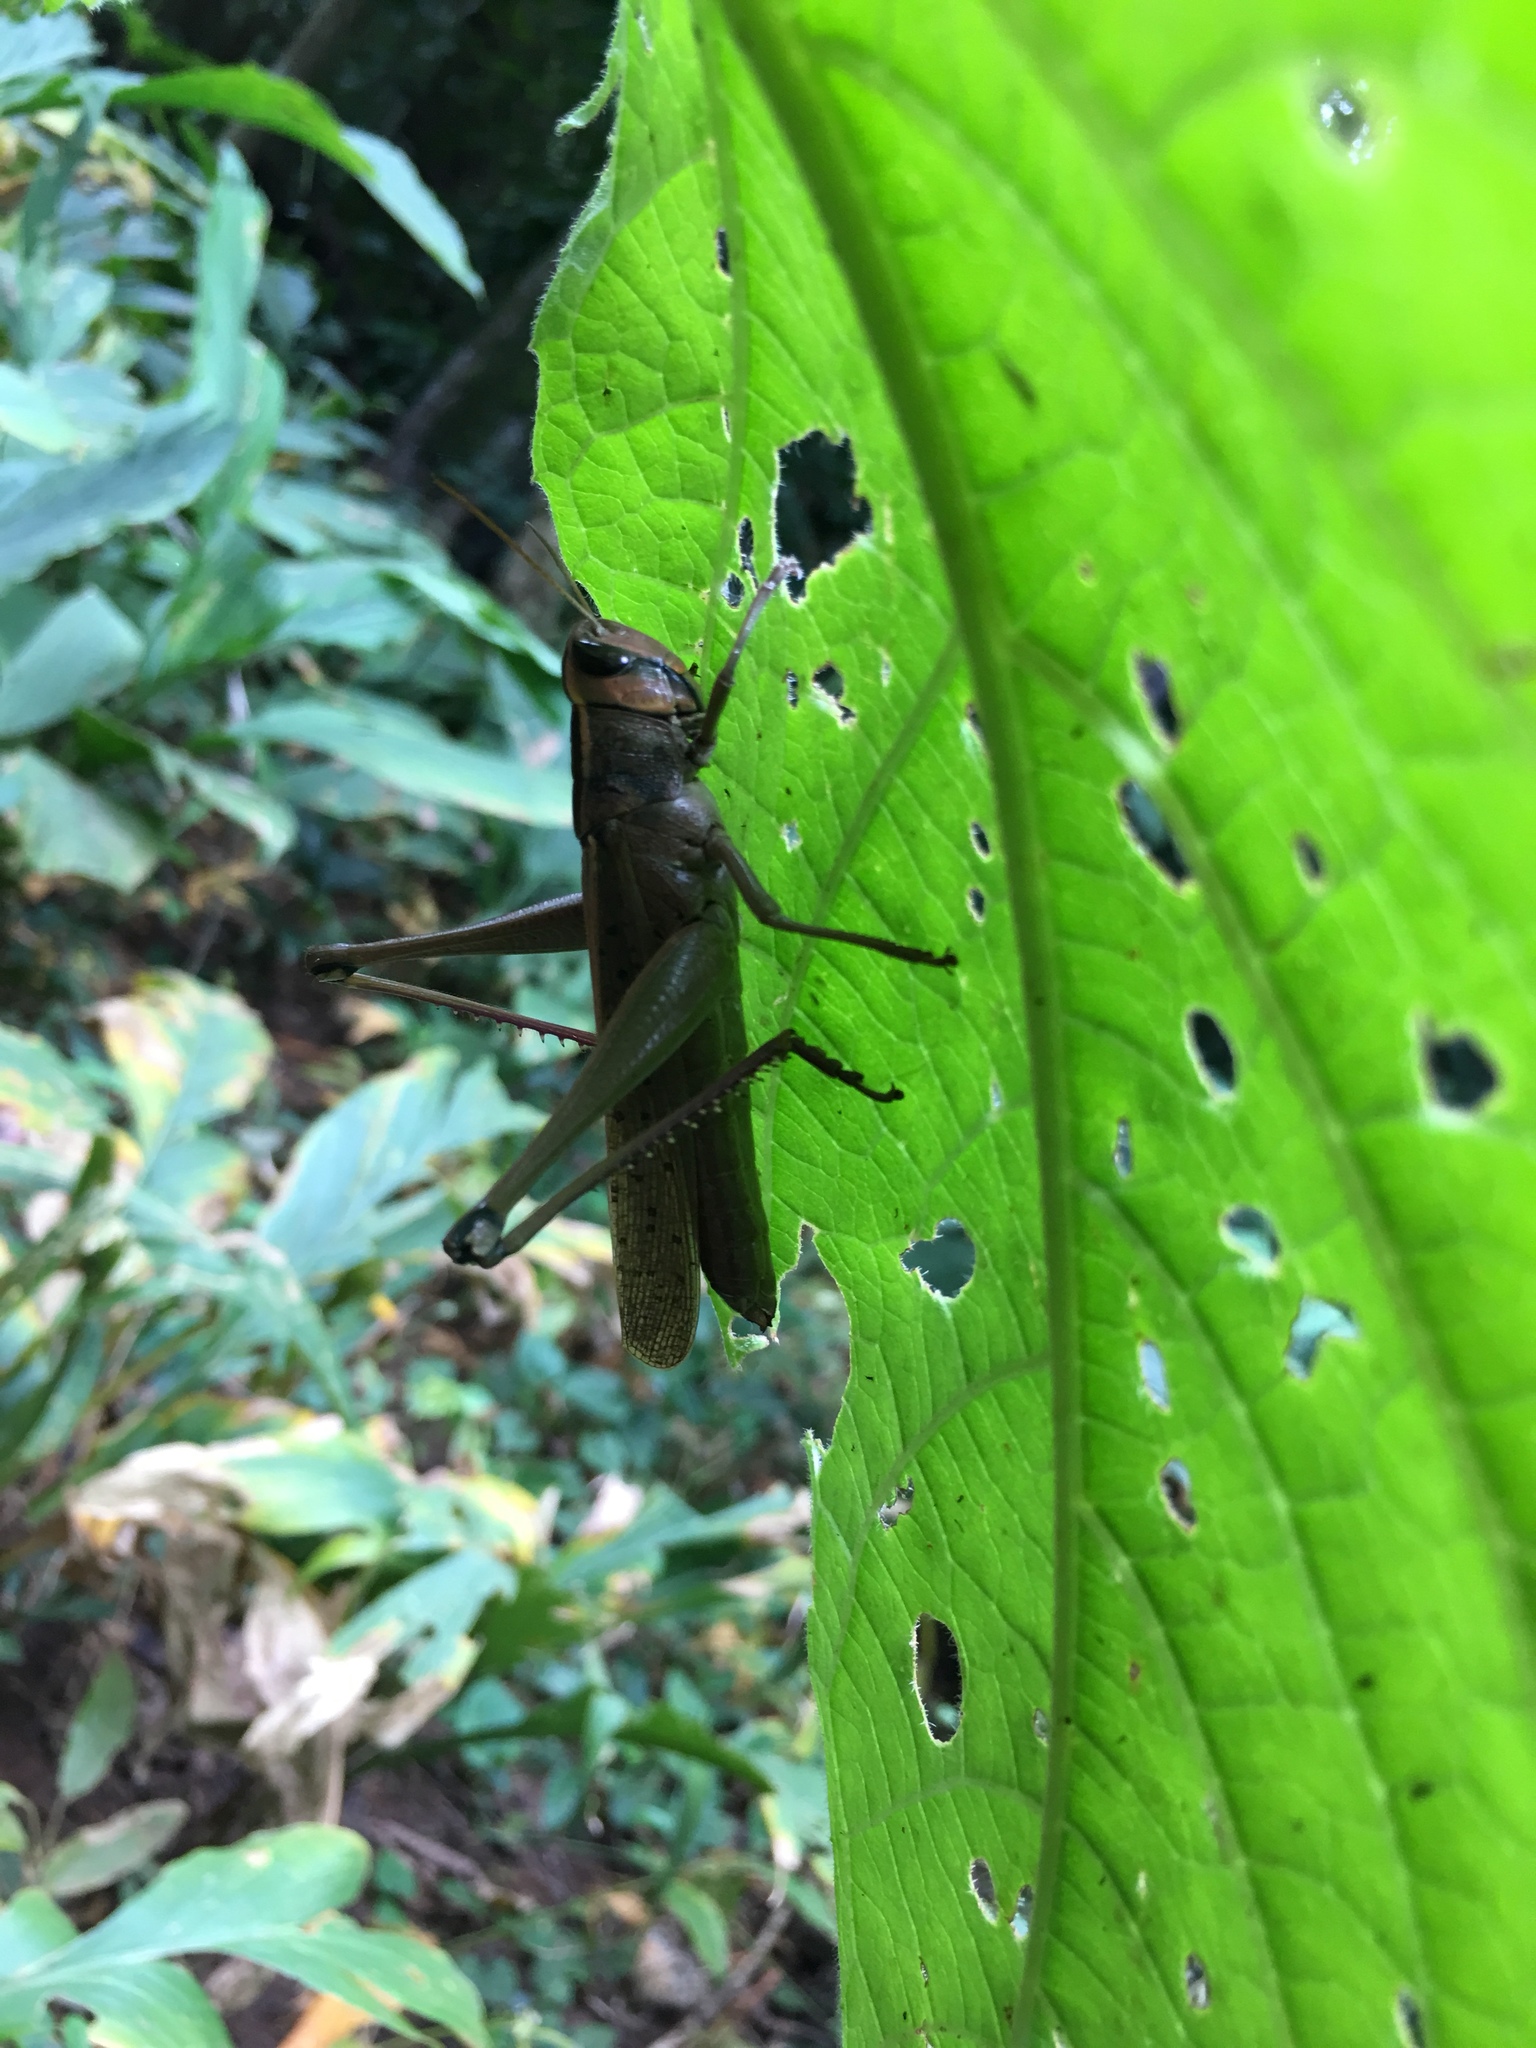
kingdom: Animalia
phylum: Arthropoda
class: Insecta
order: Orthoptera
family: Acrididae
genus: Choroedocus
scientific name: Choroedocus illustris
